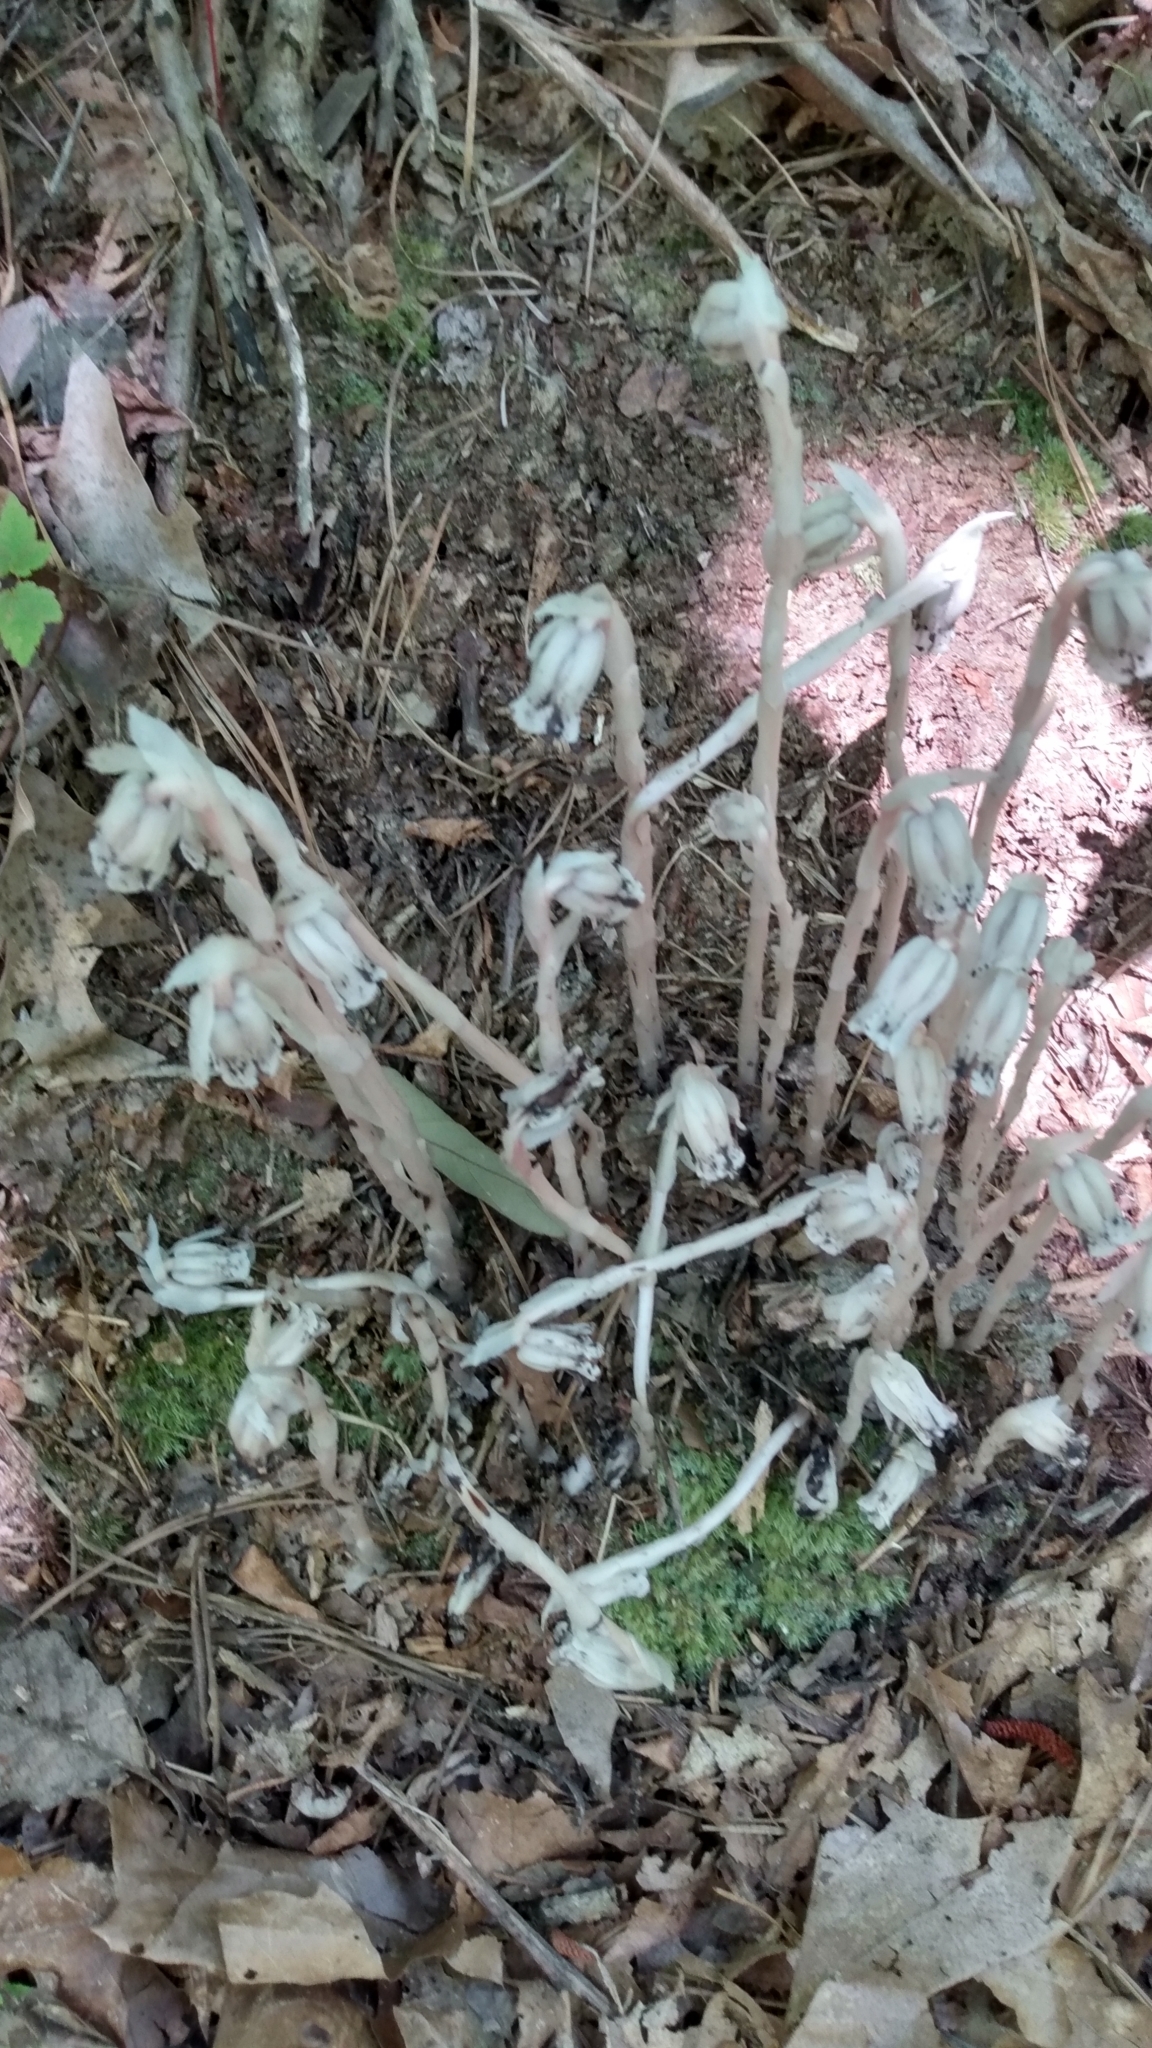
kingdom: Plantae
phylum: Tracheophyta
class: Magnoliopsida
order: Ericales
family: Ericaceae
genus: Monotropa
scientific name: Monotropa uniflora
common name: Convulsion root
